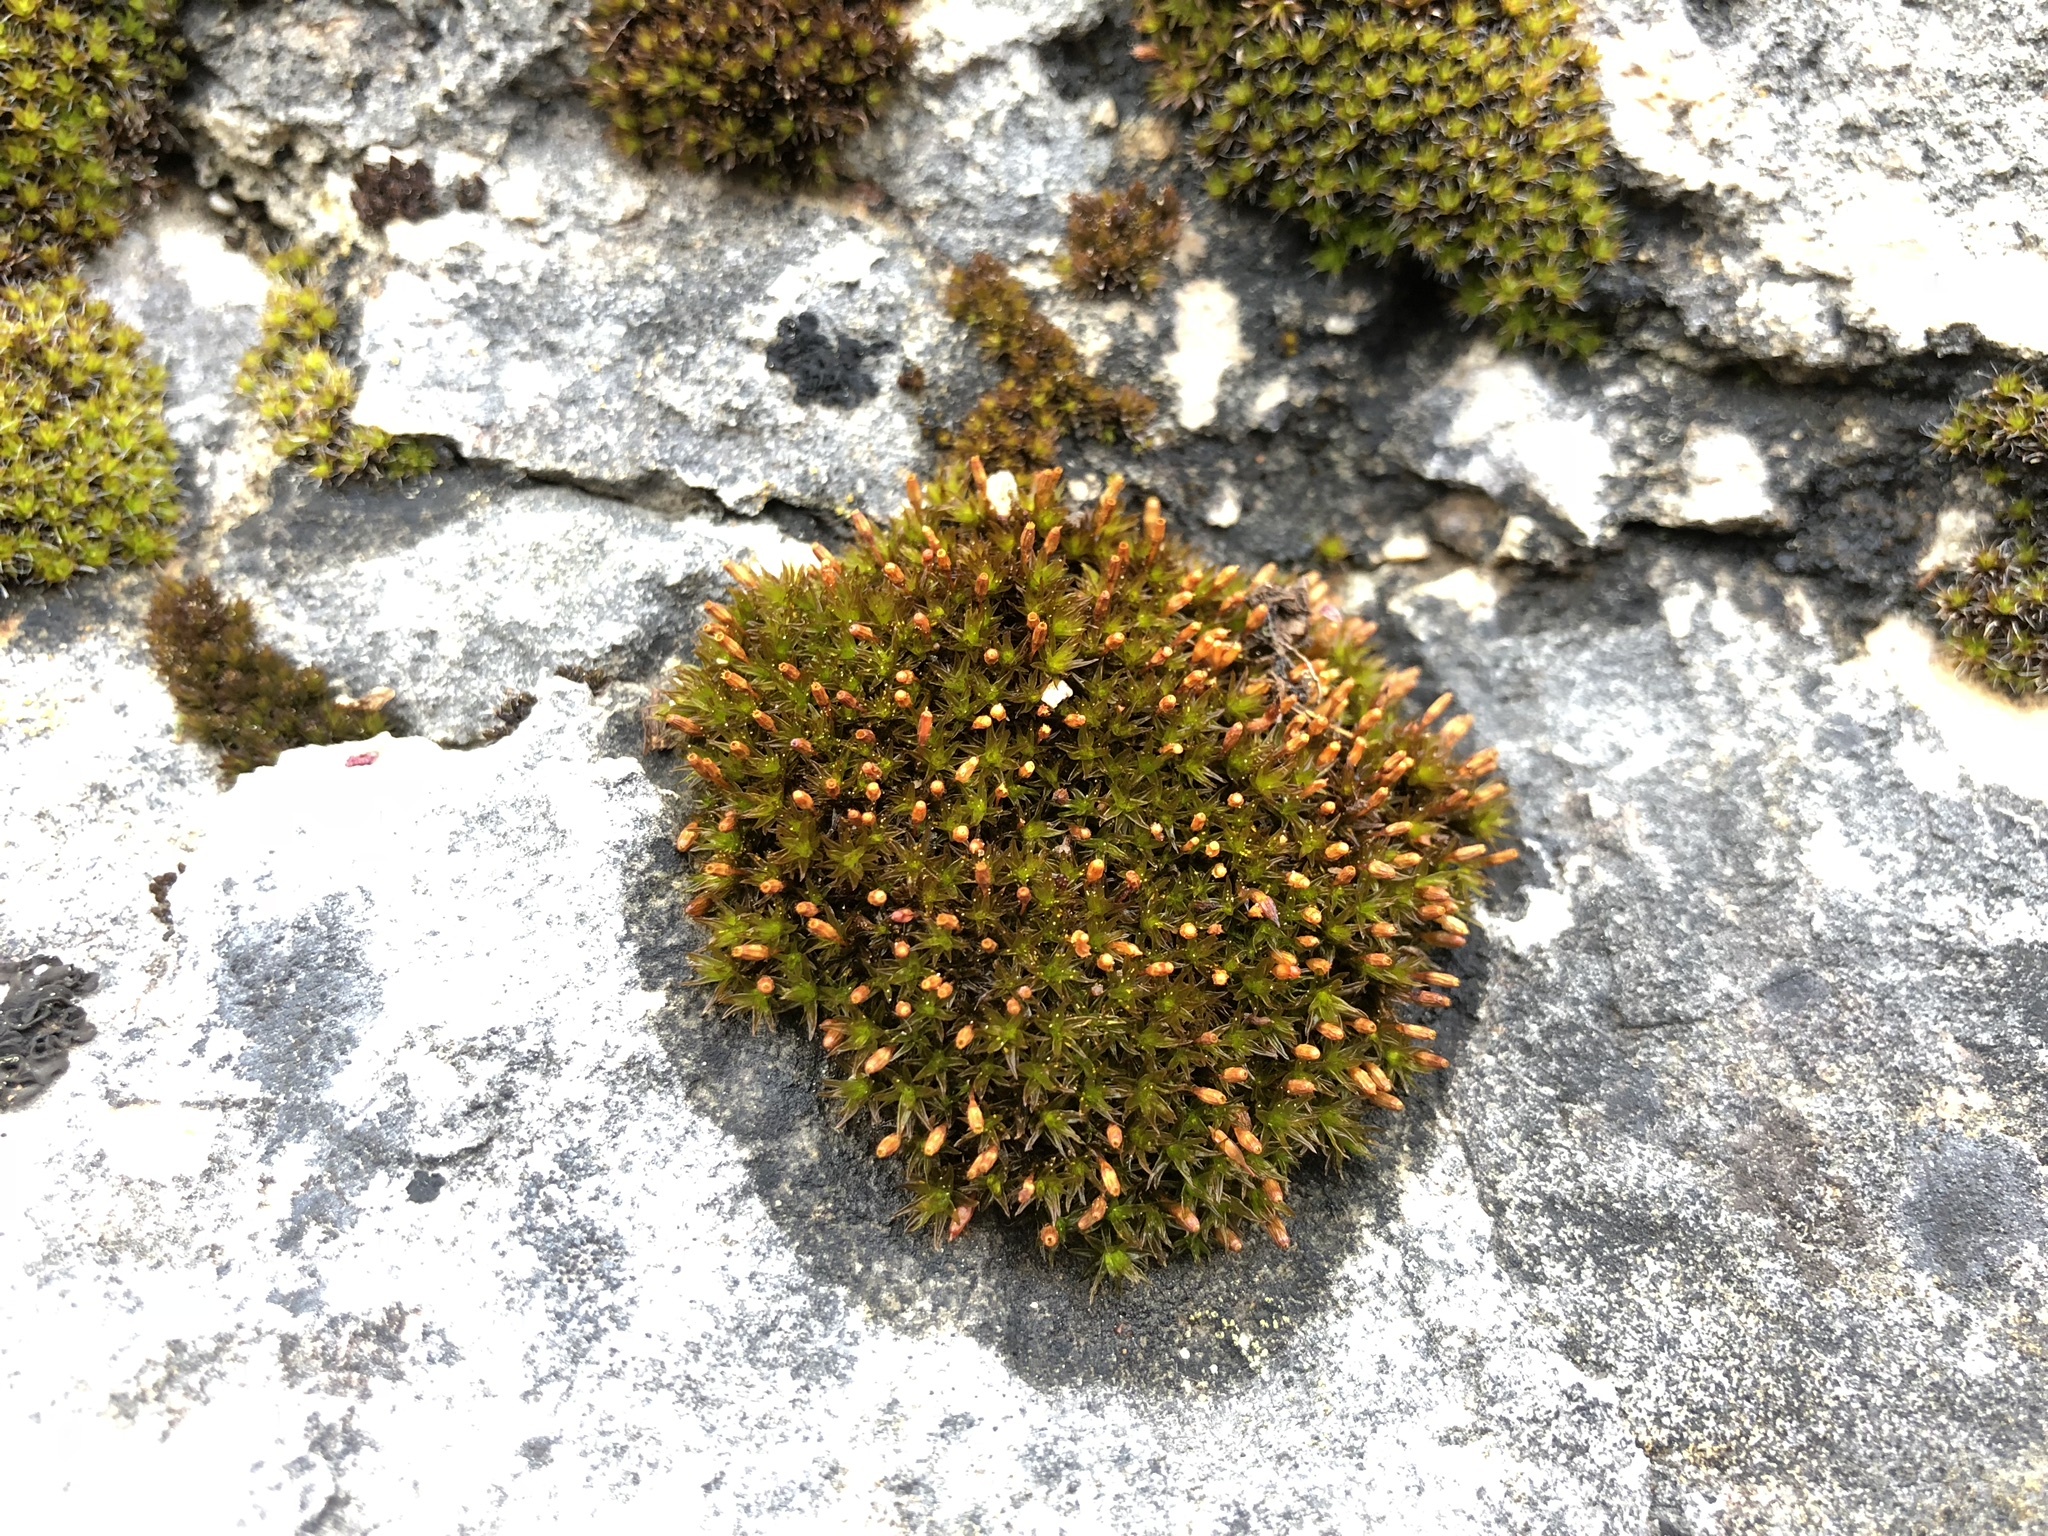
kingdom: Plantae
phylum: Bryophyta
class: Bryopsida
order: Orthotrichales
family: Orthotrichaceae
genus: Orthotrichum
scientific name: Orthotrichum anomalum
